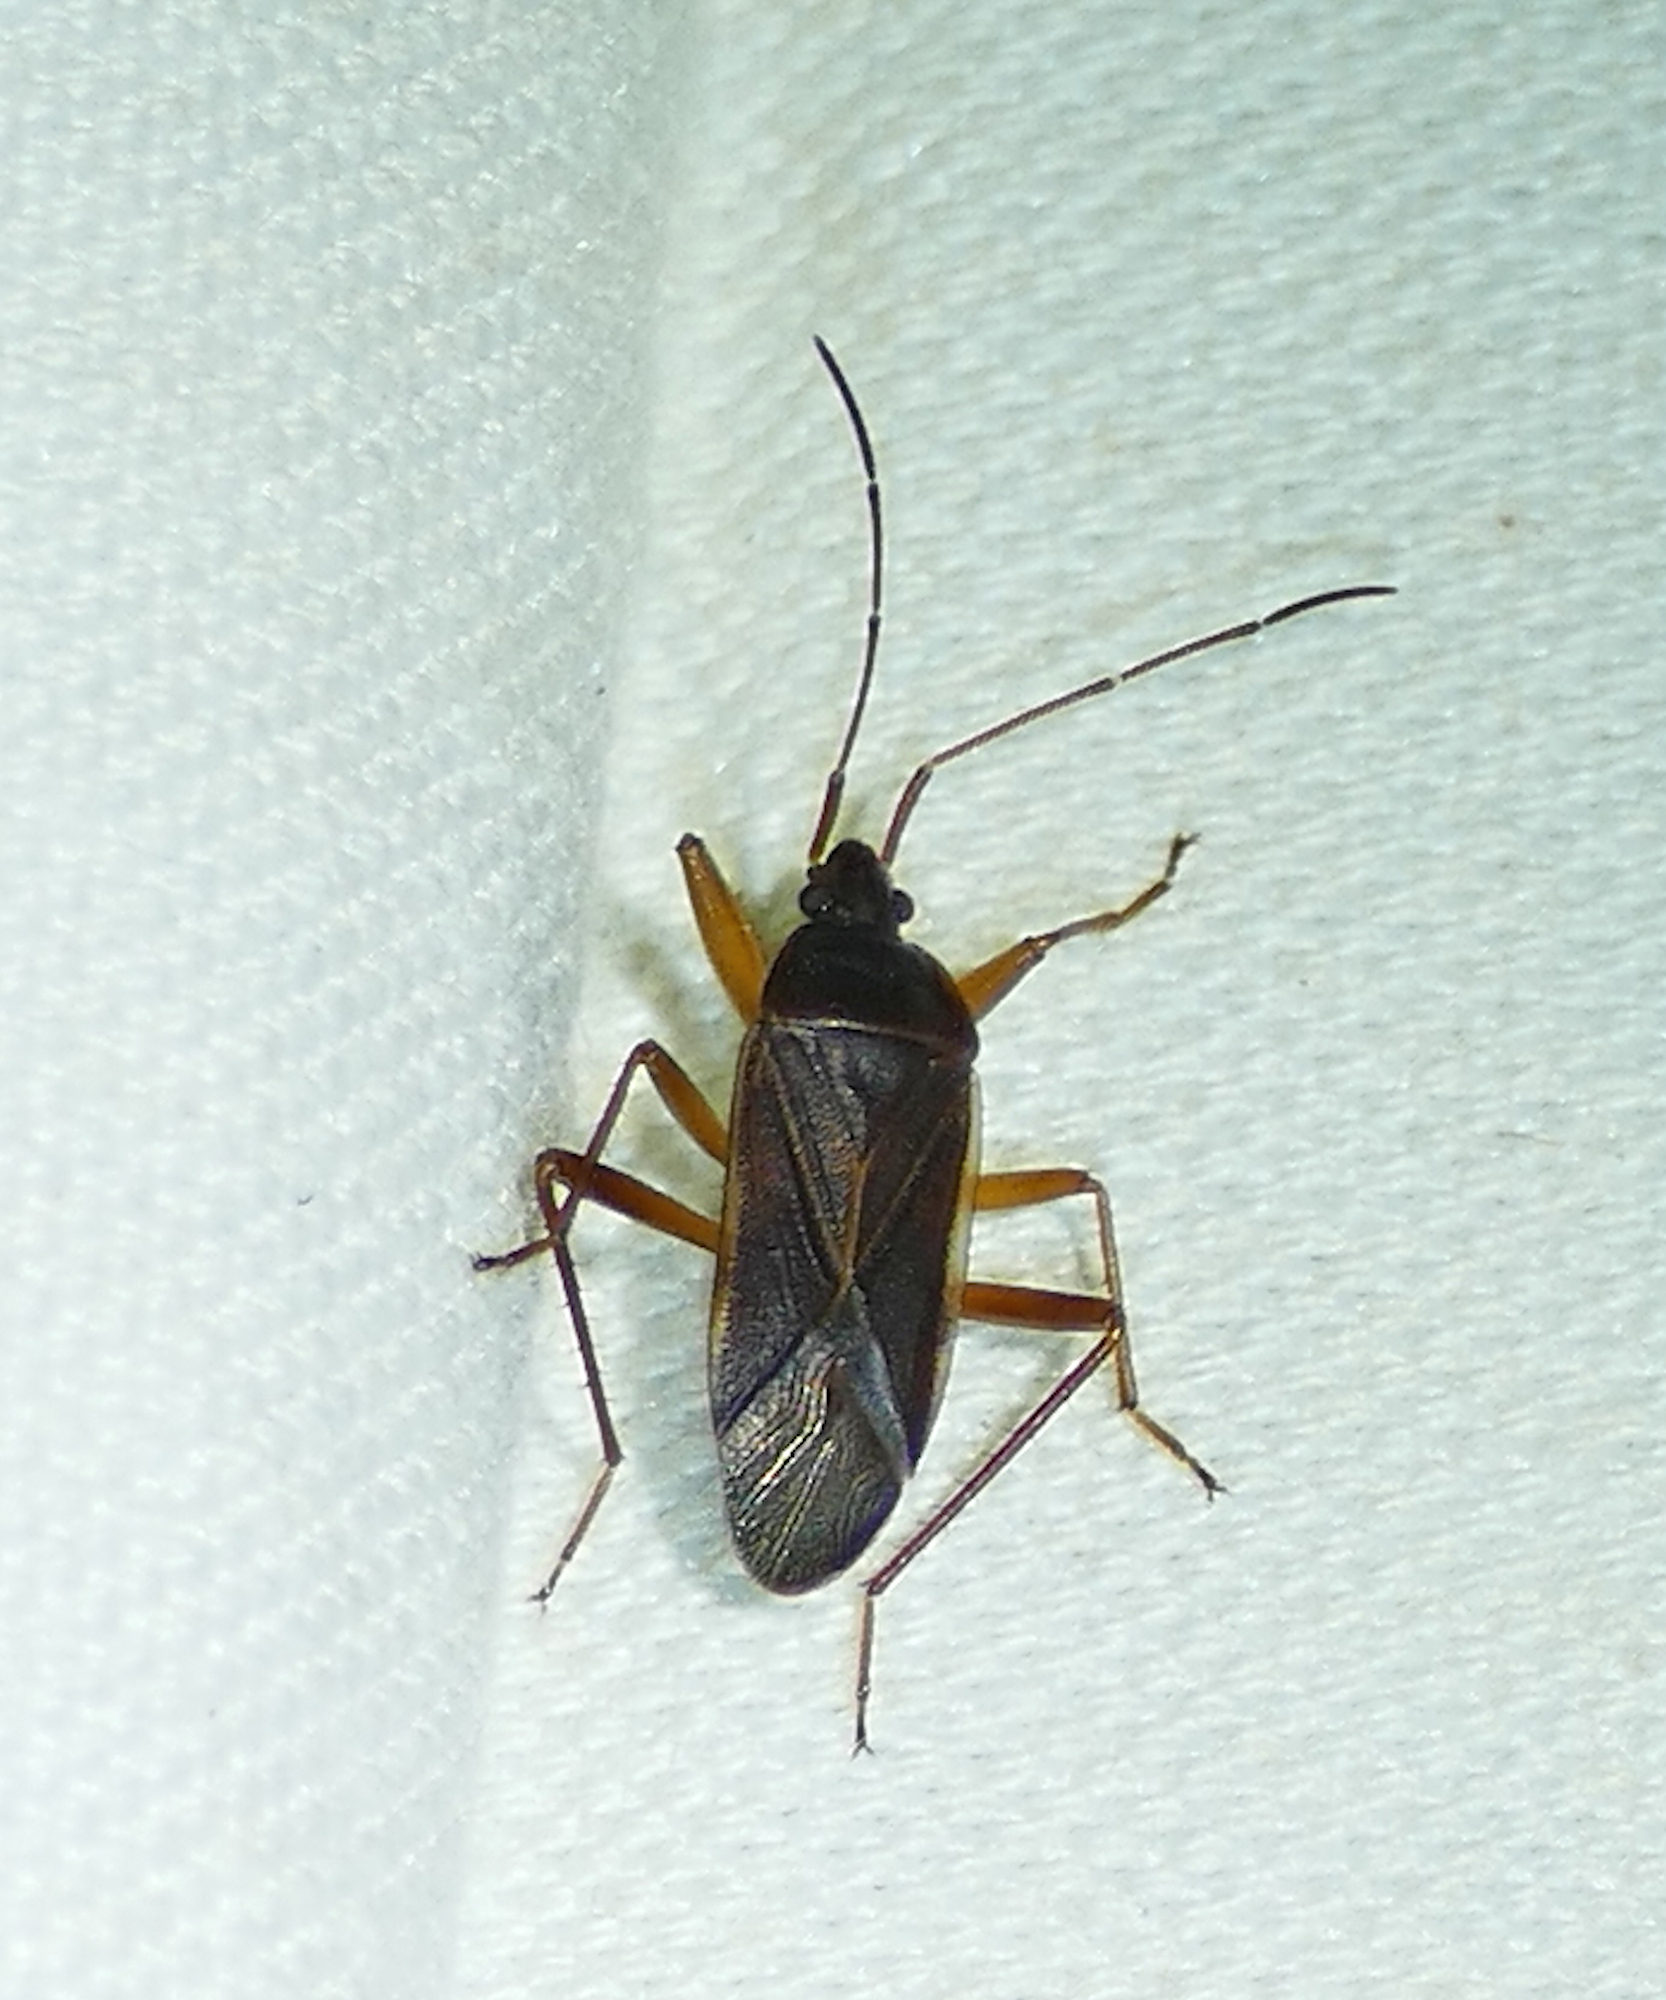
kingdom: Animalia
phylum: Arthropoda
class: Insecta
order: Hemiptera
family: Rhyparochromidae
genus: Balboa
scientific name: Balboa ampliata
